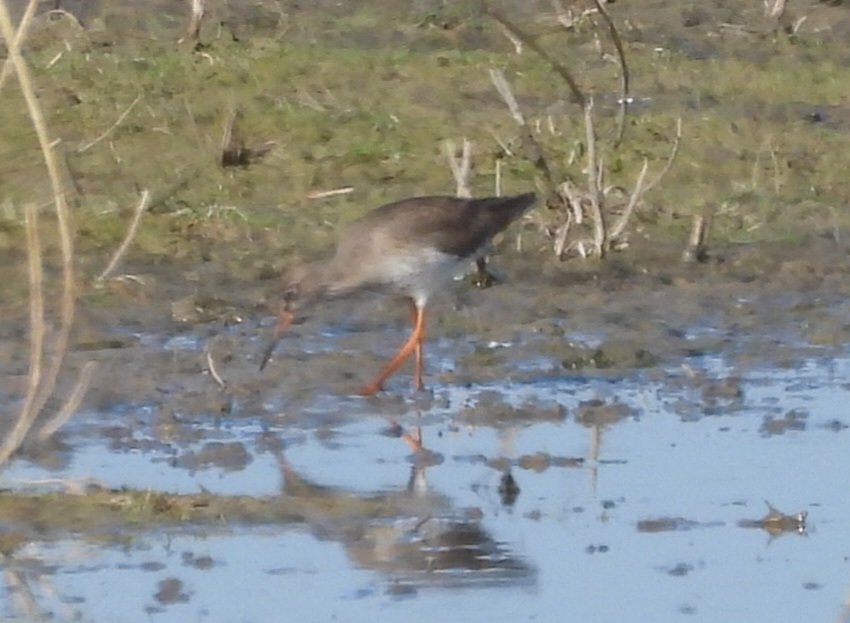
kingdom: Animalia
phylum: Chordata
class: Aves
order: Charadriiformes
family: Scolopacidae
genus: Tringa
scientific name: Tringa totanus
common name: Common redshank
